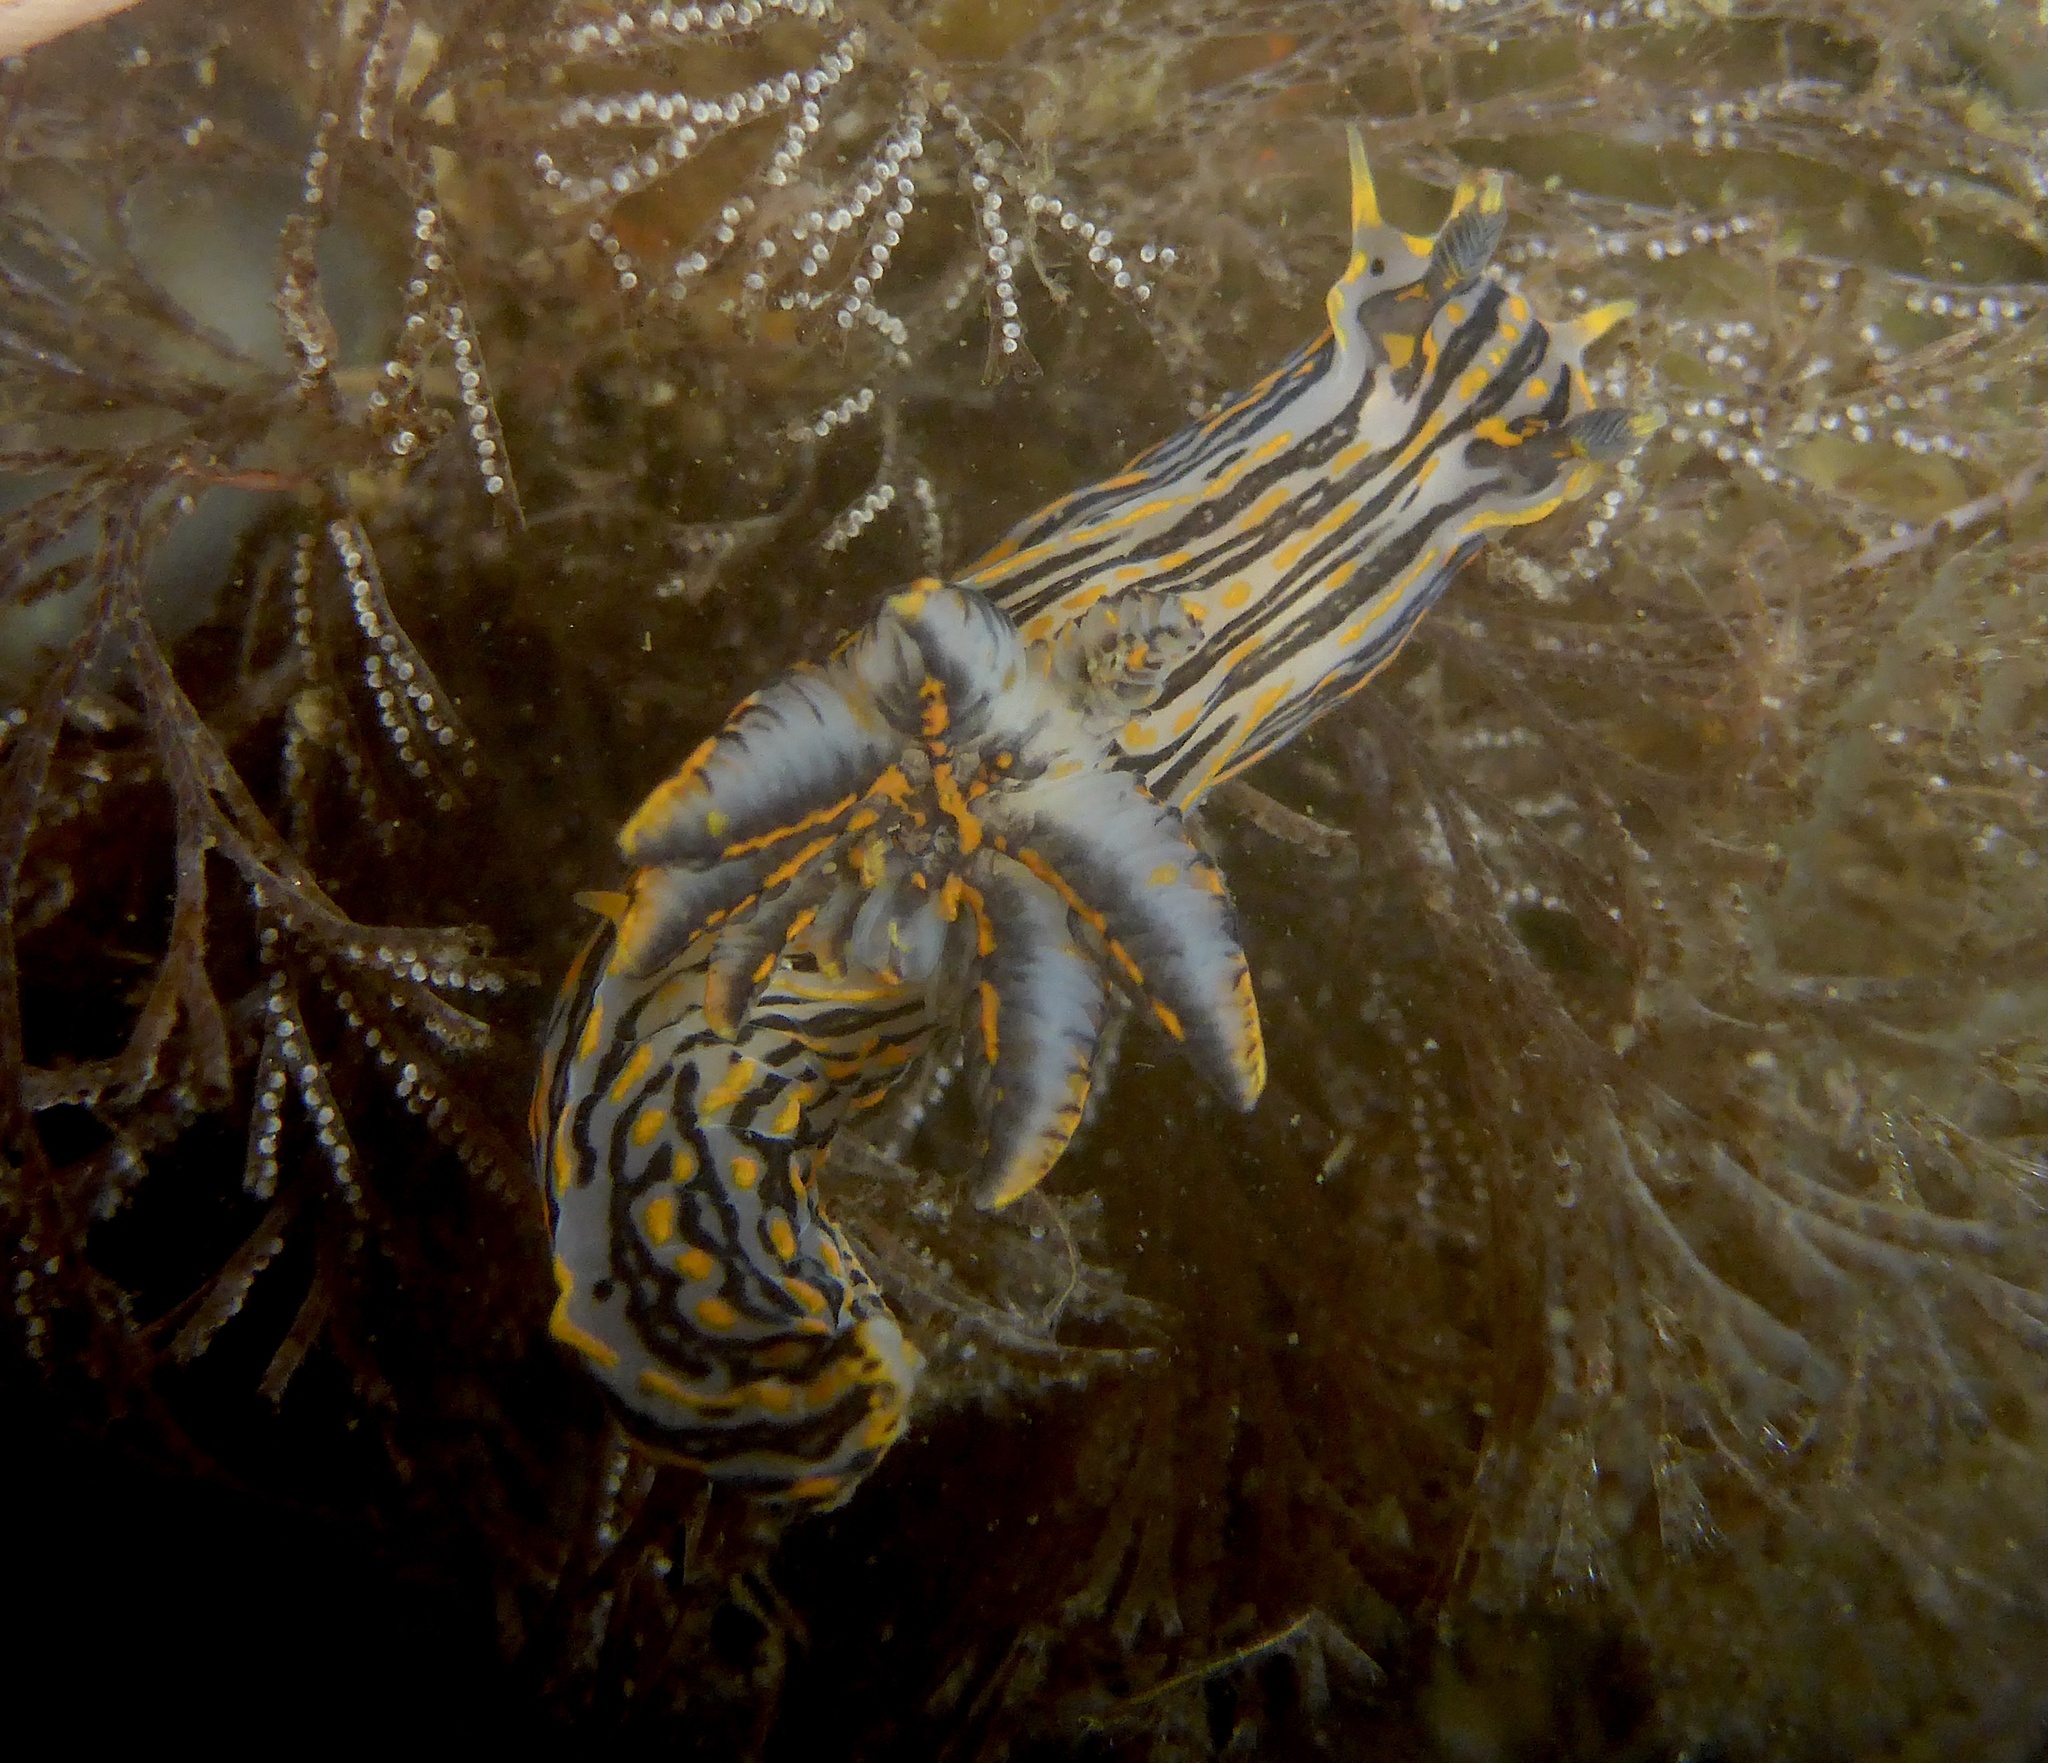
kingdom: Animalia
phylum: Mollusca
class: Gastropoda
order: Nudibranchia
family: Polyceridae
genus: Polycera
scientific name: Polycera atra
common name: Orange-spike polycera
